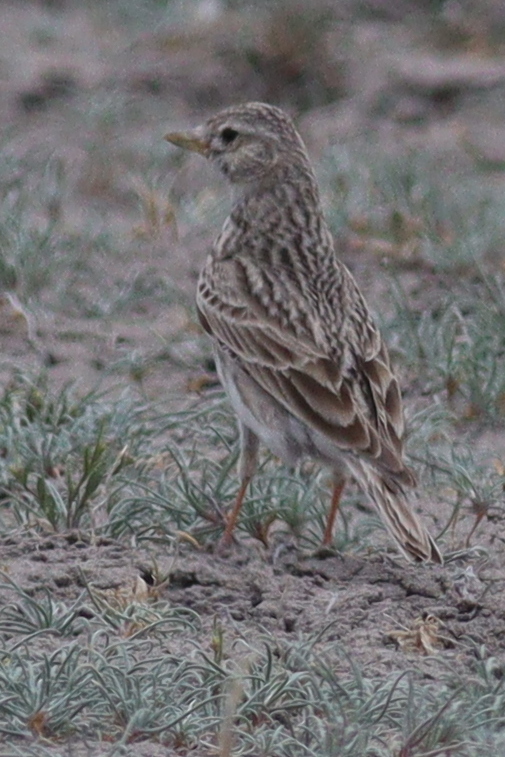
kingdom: Animalia
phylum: Chordata
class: Aves
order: Passeriformes
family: Alaudidae
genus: Calandrella
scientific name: Calandrella rufescens
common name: Lesser short-toed lark
